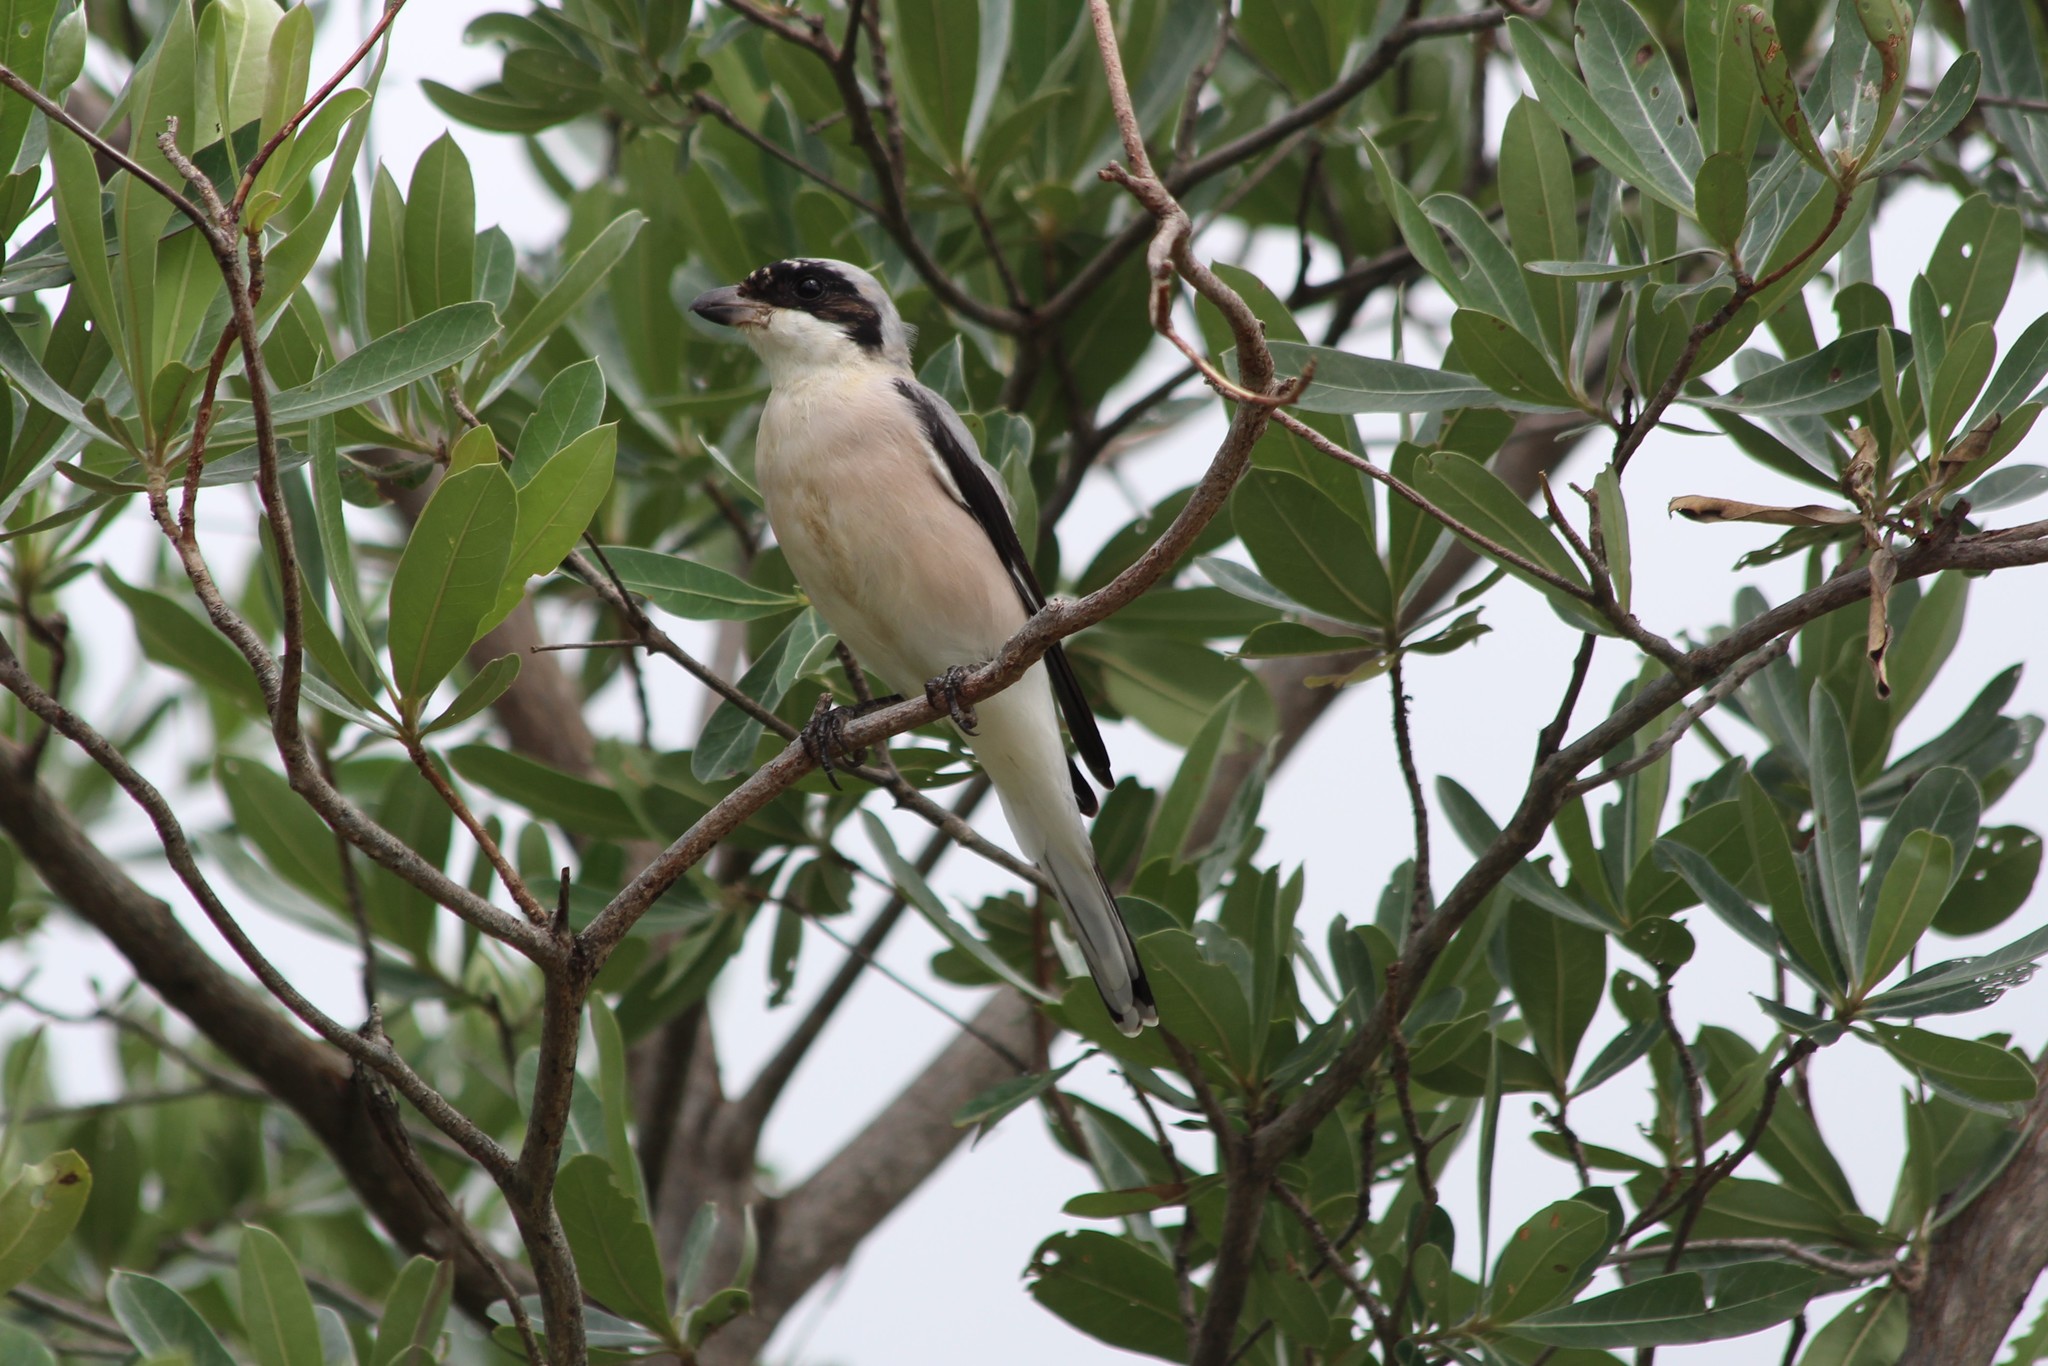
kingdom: Animalia
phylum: Chordata
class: Aves
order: Passeriformes
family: Laniidae
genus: Lanius
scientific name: Lanius minor
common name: Lesser grey shrike
